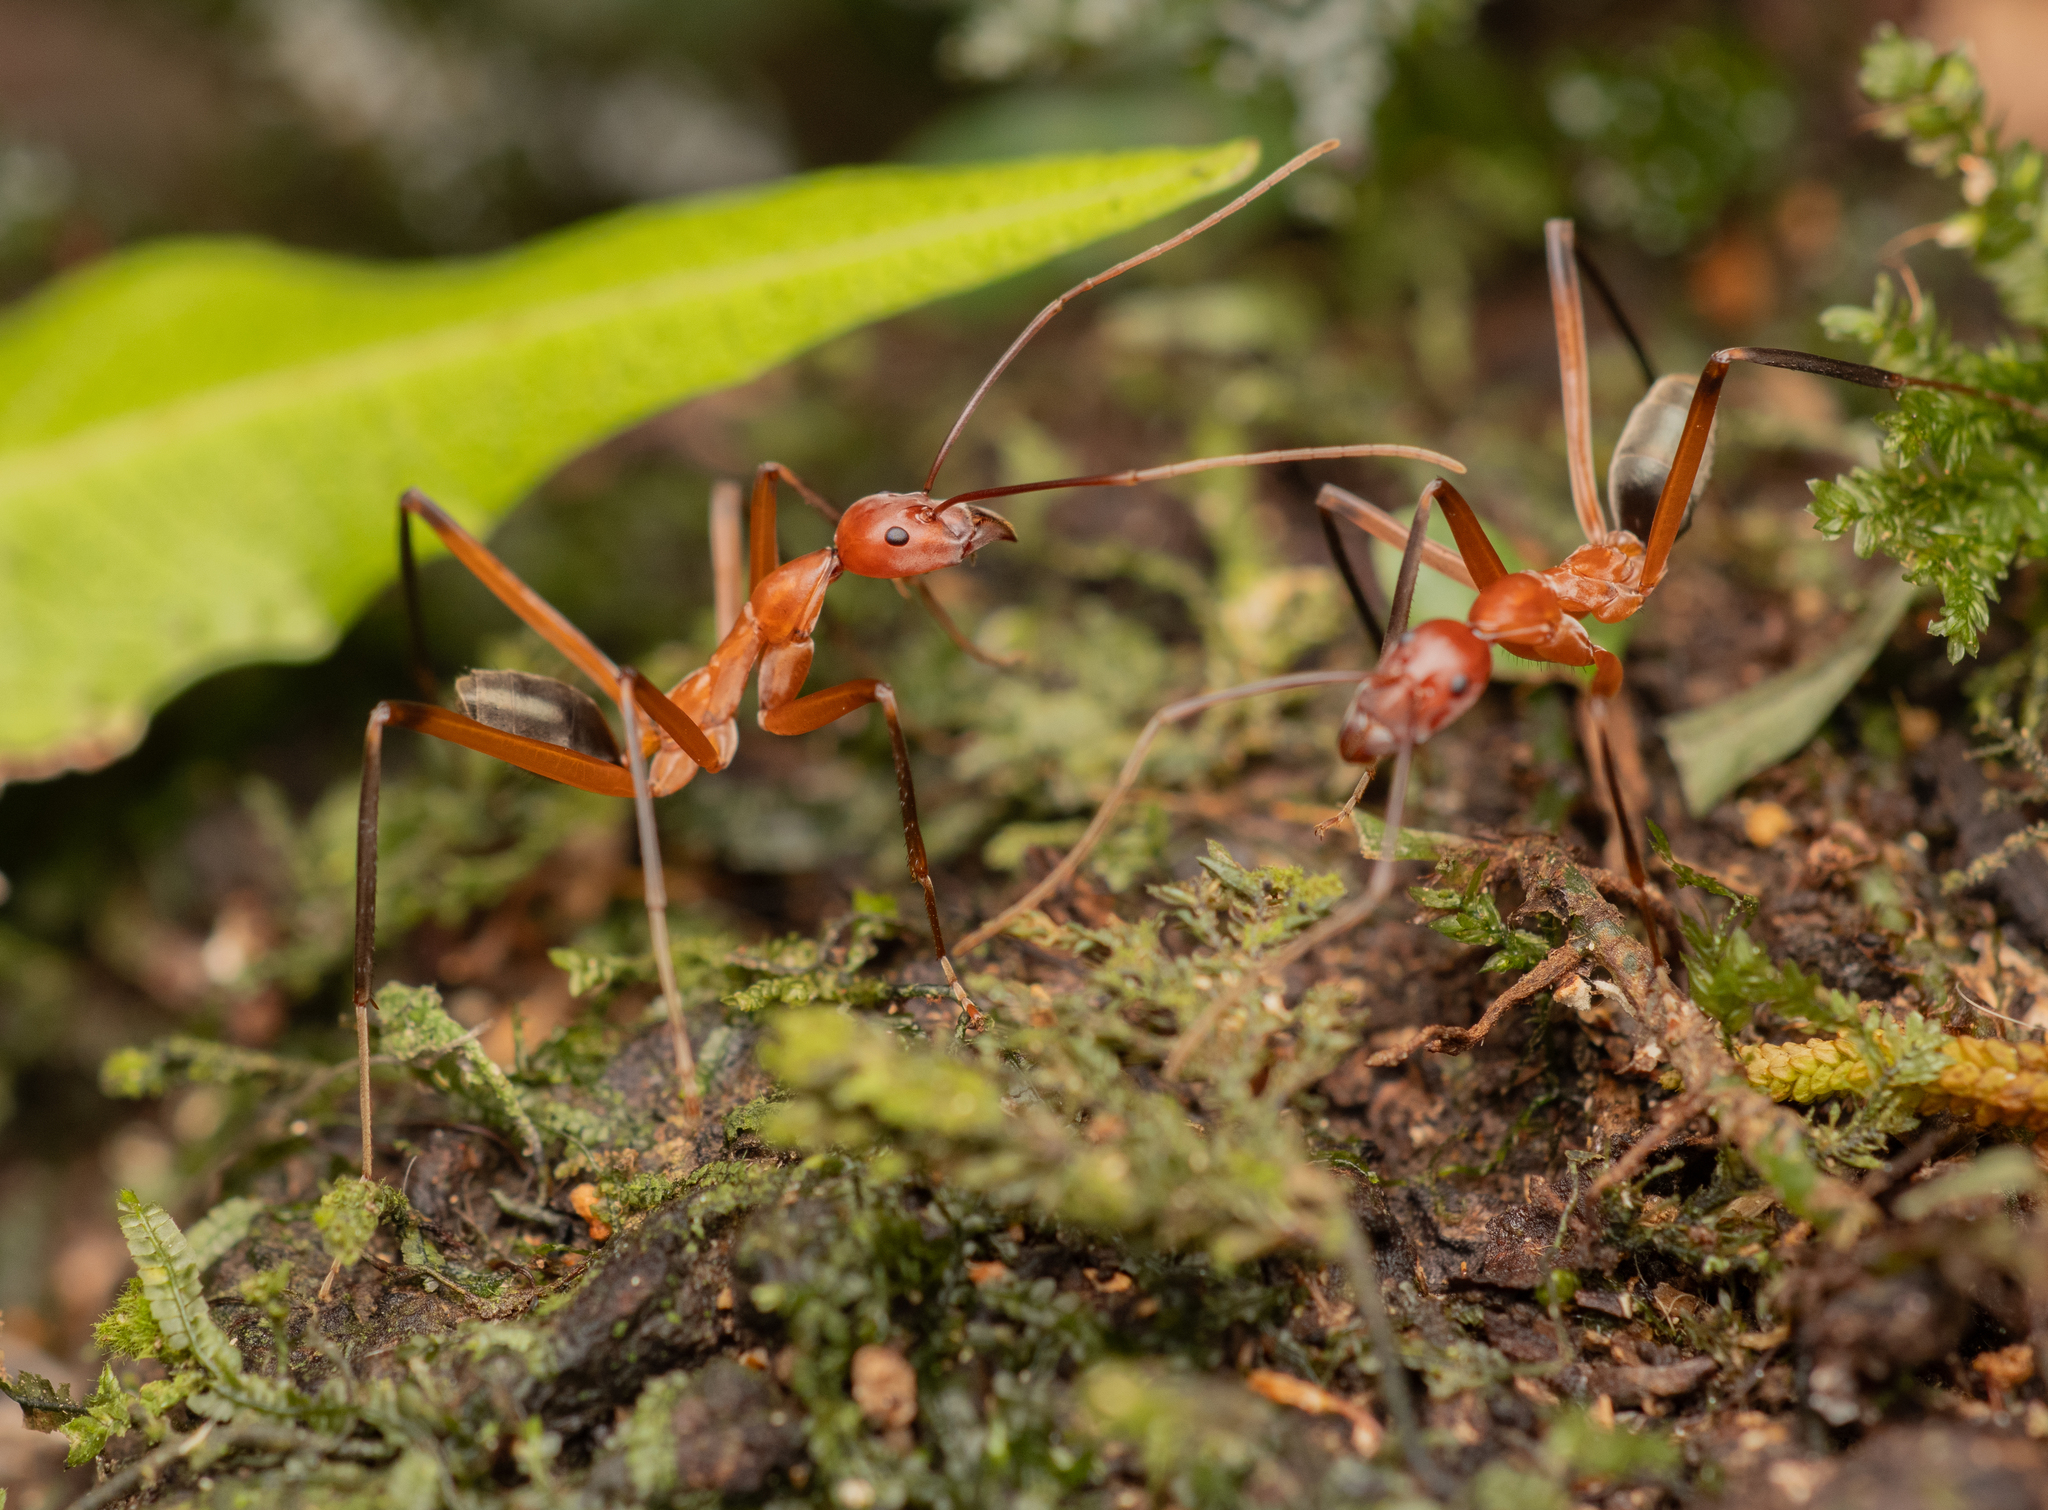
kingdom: Animalia
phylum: Arthropoda
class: Insecta
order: Hymenoptera
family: Formicidae
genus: Leptomyrmex
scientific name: Leptomyrmex tibialis
